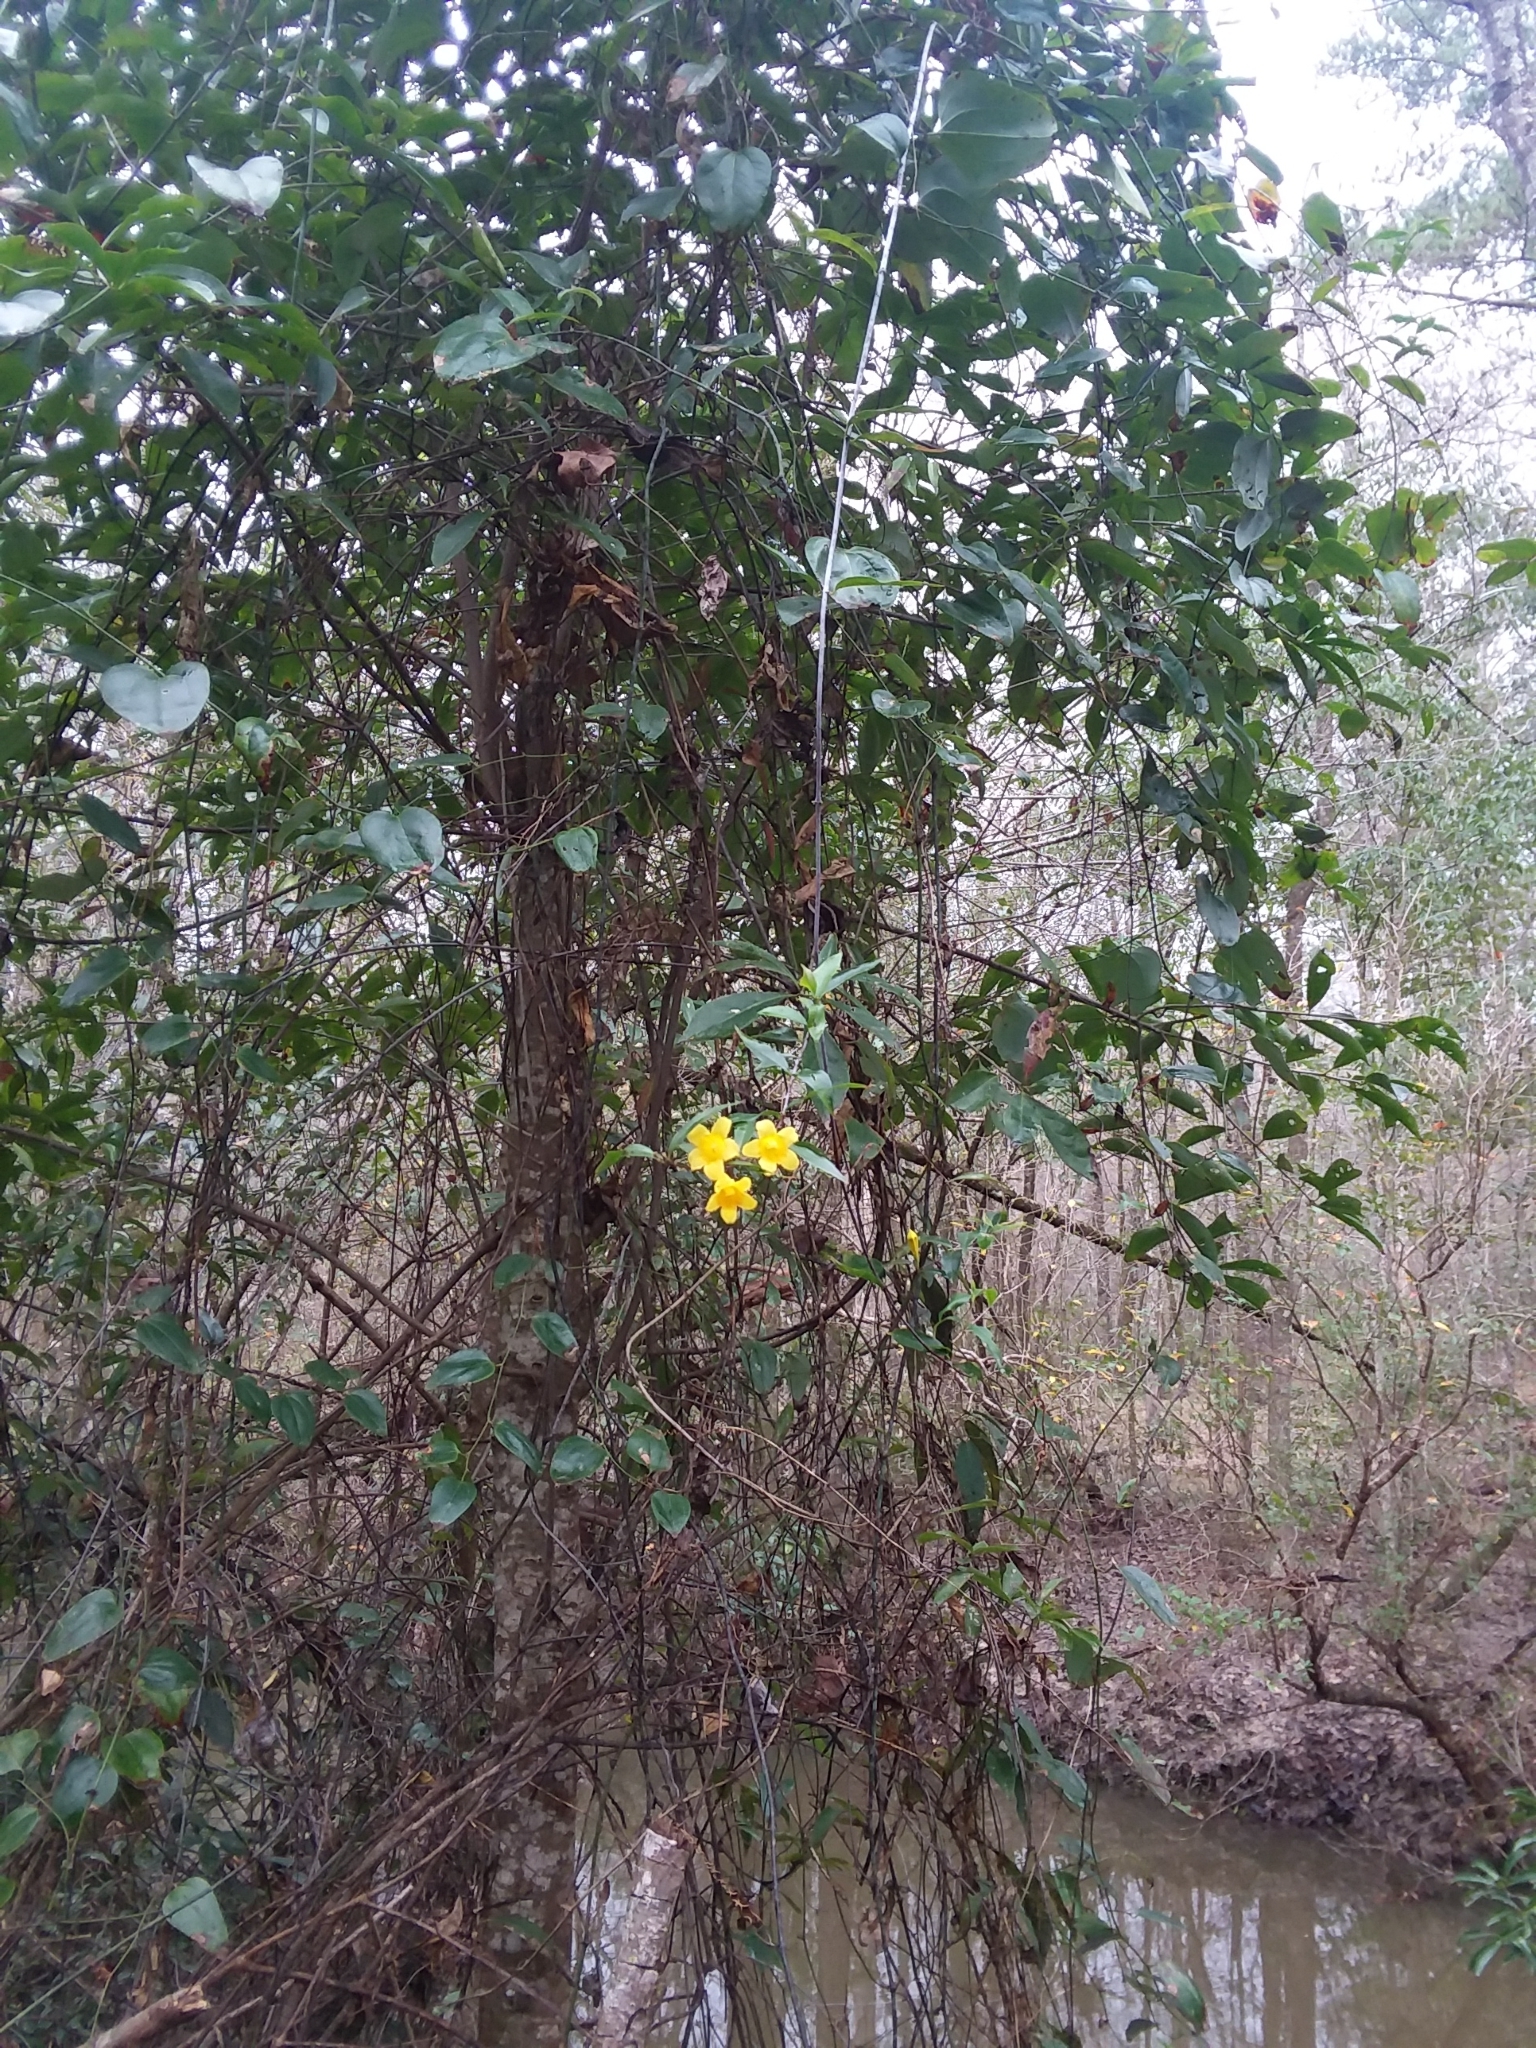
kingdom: Plantae
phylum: Tracheophyta
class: Magnoliopsida
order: Gentianales
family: Gelsemiaceae
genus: Gelsemium
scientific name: Gelsemium sempervirens
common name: Carolina-jasmine
